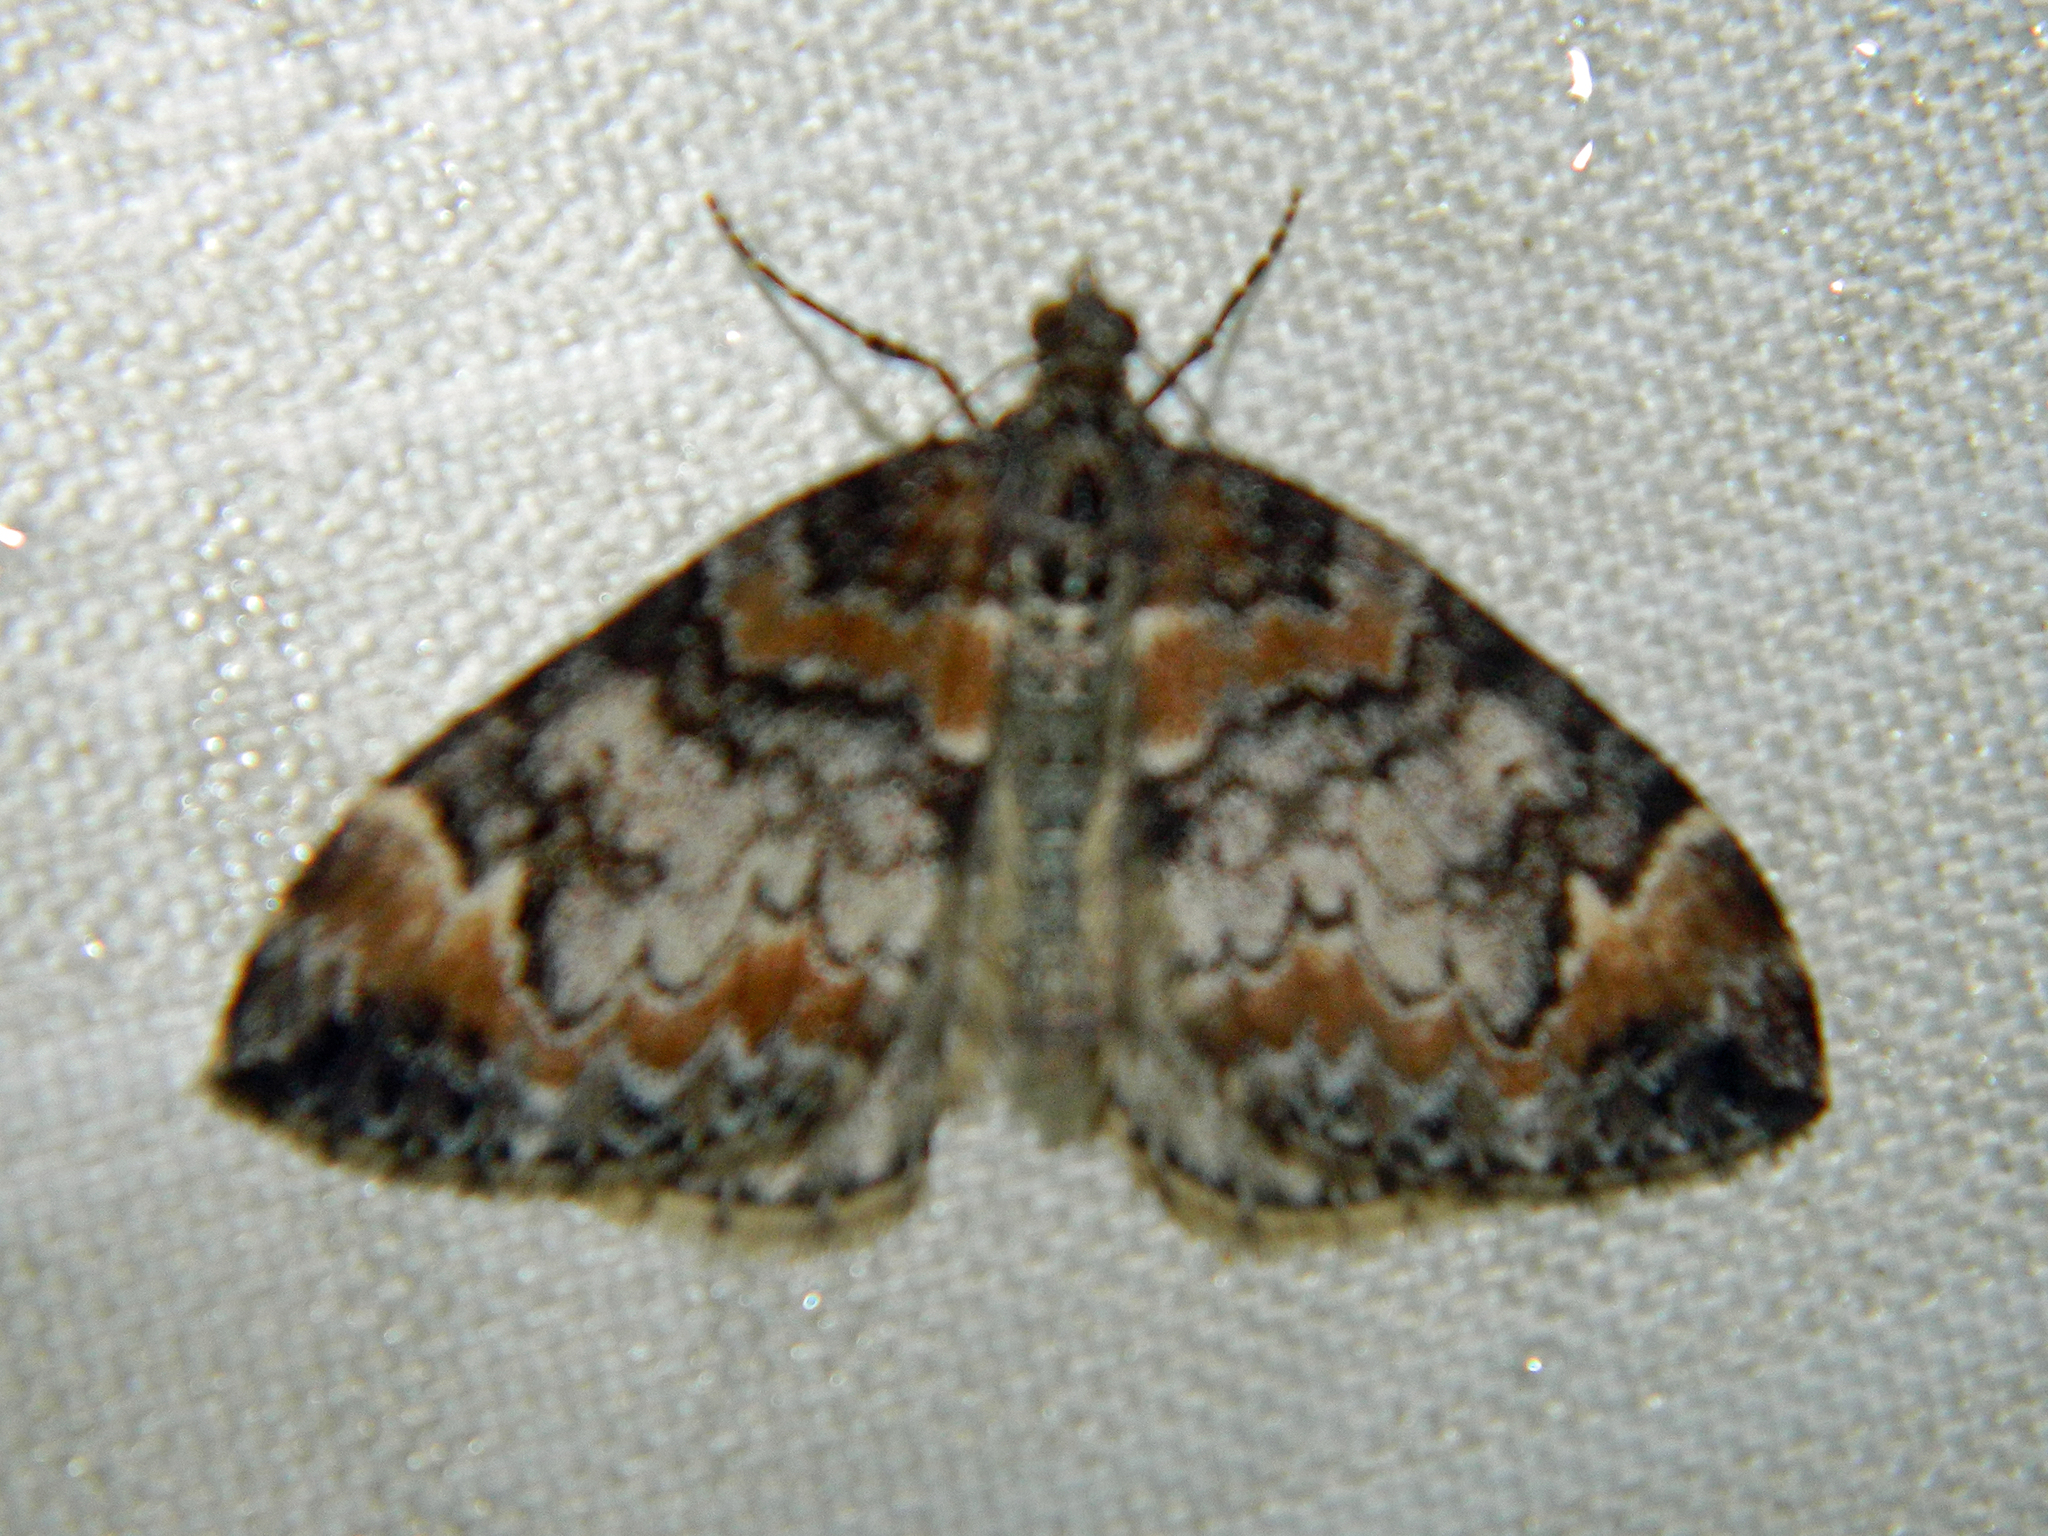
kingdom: Animalia
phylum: Arthropoda
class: Insecta
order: Lepidoptera
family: Geometridae
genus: Dysstroma
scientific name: Dysstroma truncata
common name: Common marbled carpet
